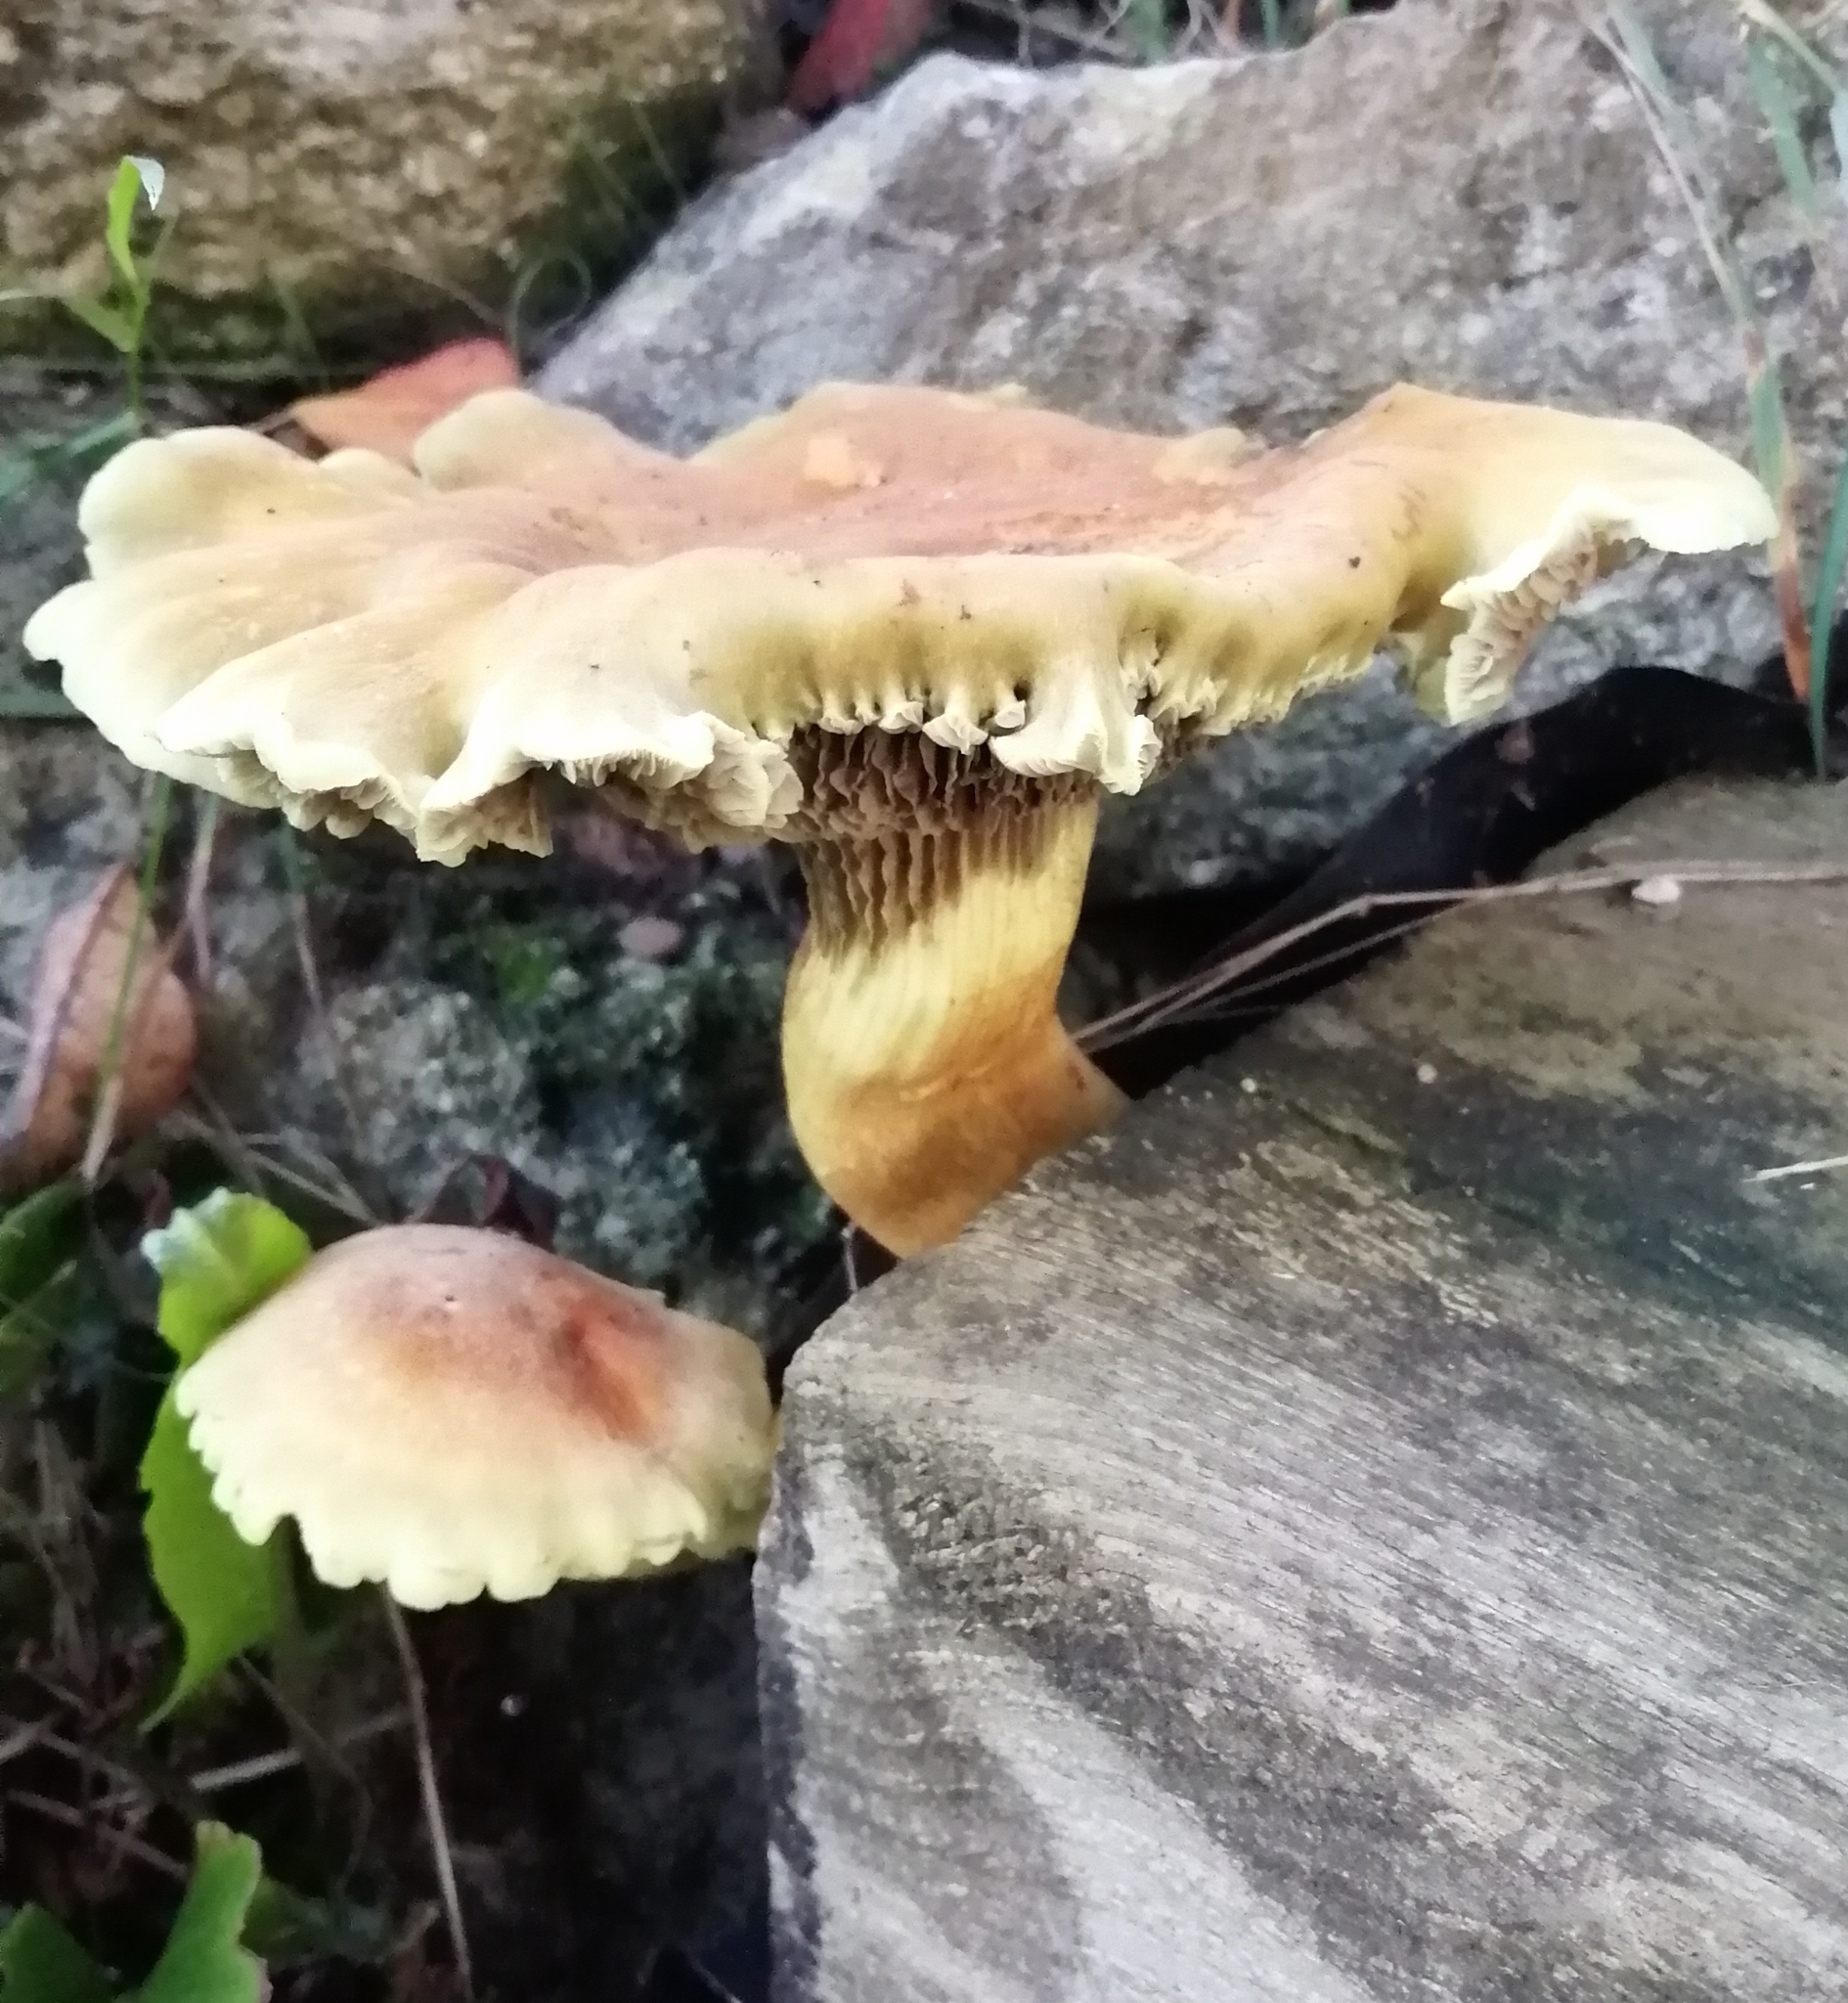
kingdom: Fungi
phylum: Basidiomycota
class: Agaricomycetes
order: Agaricales
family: Strophariaceae
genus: Hypholoma
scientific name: Hypholoma fasciculare
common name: Sulphur tuft
